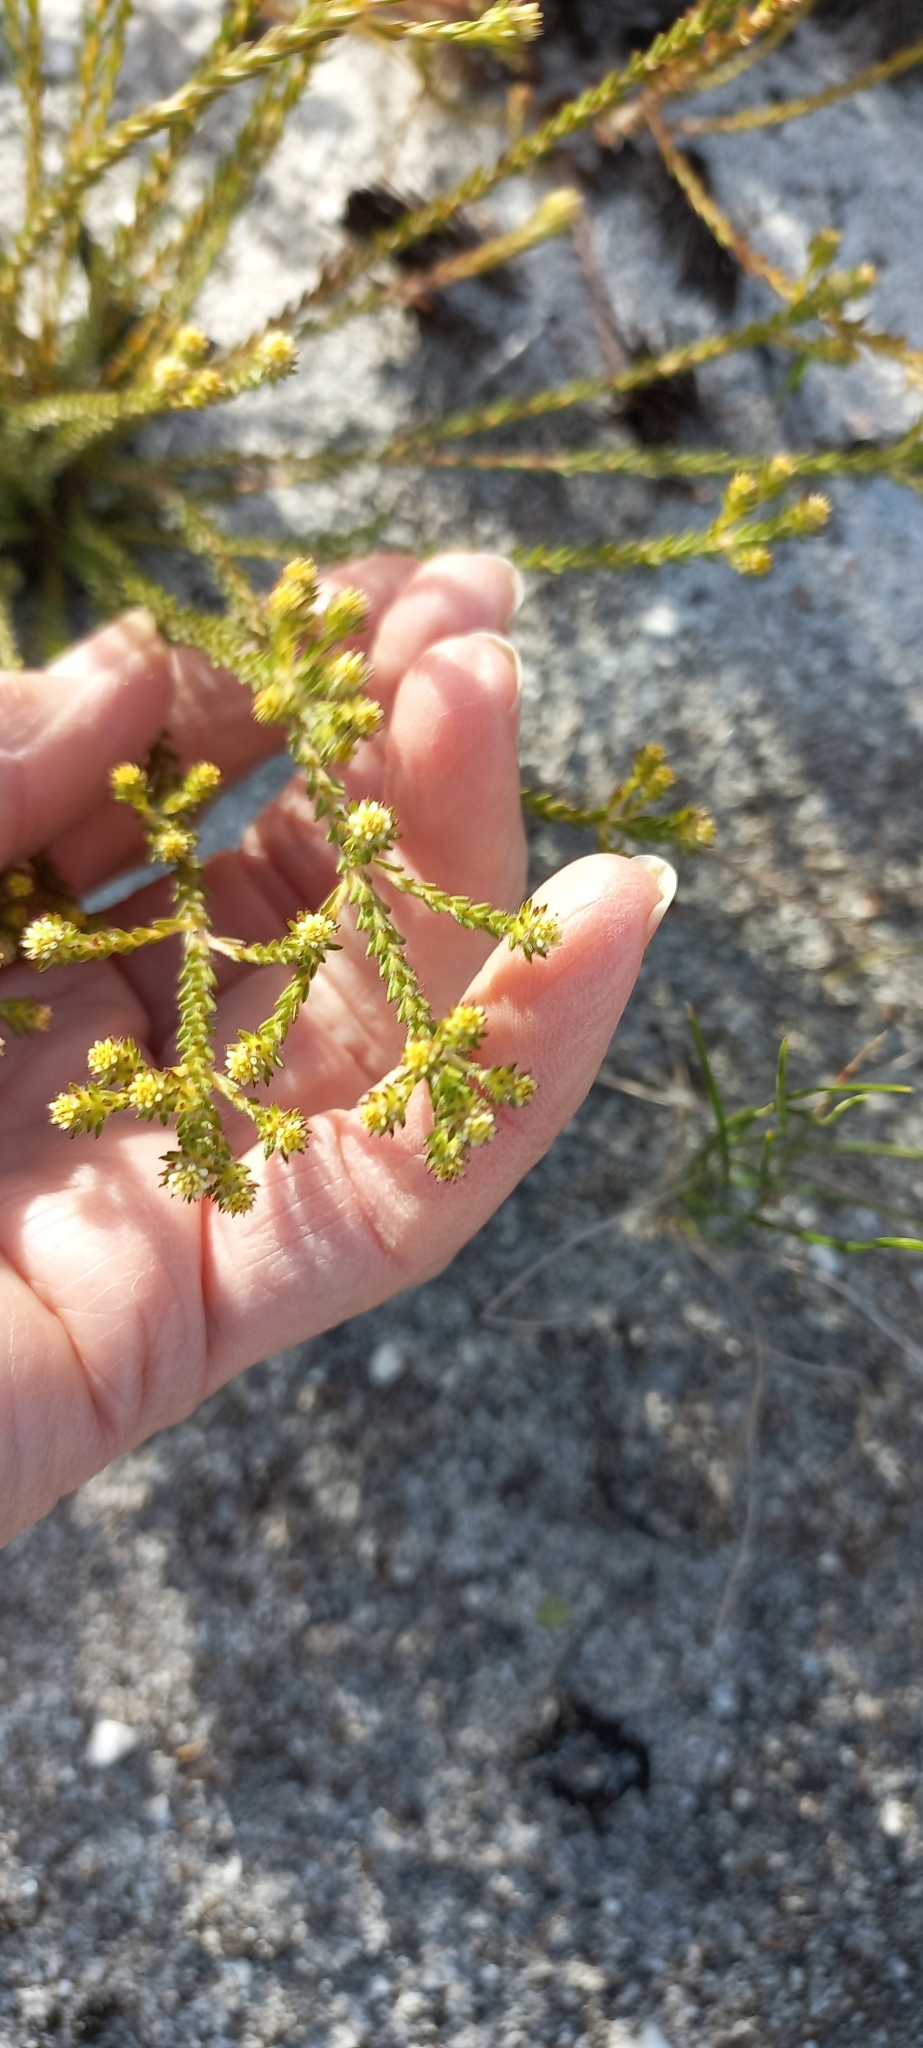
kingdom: Plantae
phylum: Tracheophyta
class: Magnoliopsida
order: Bruniales
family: Bruniaceae
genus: Staavia
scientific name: Staavia capitella
